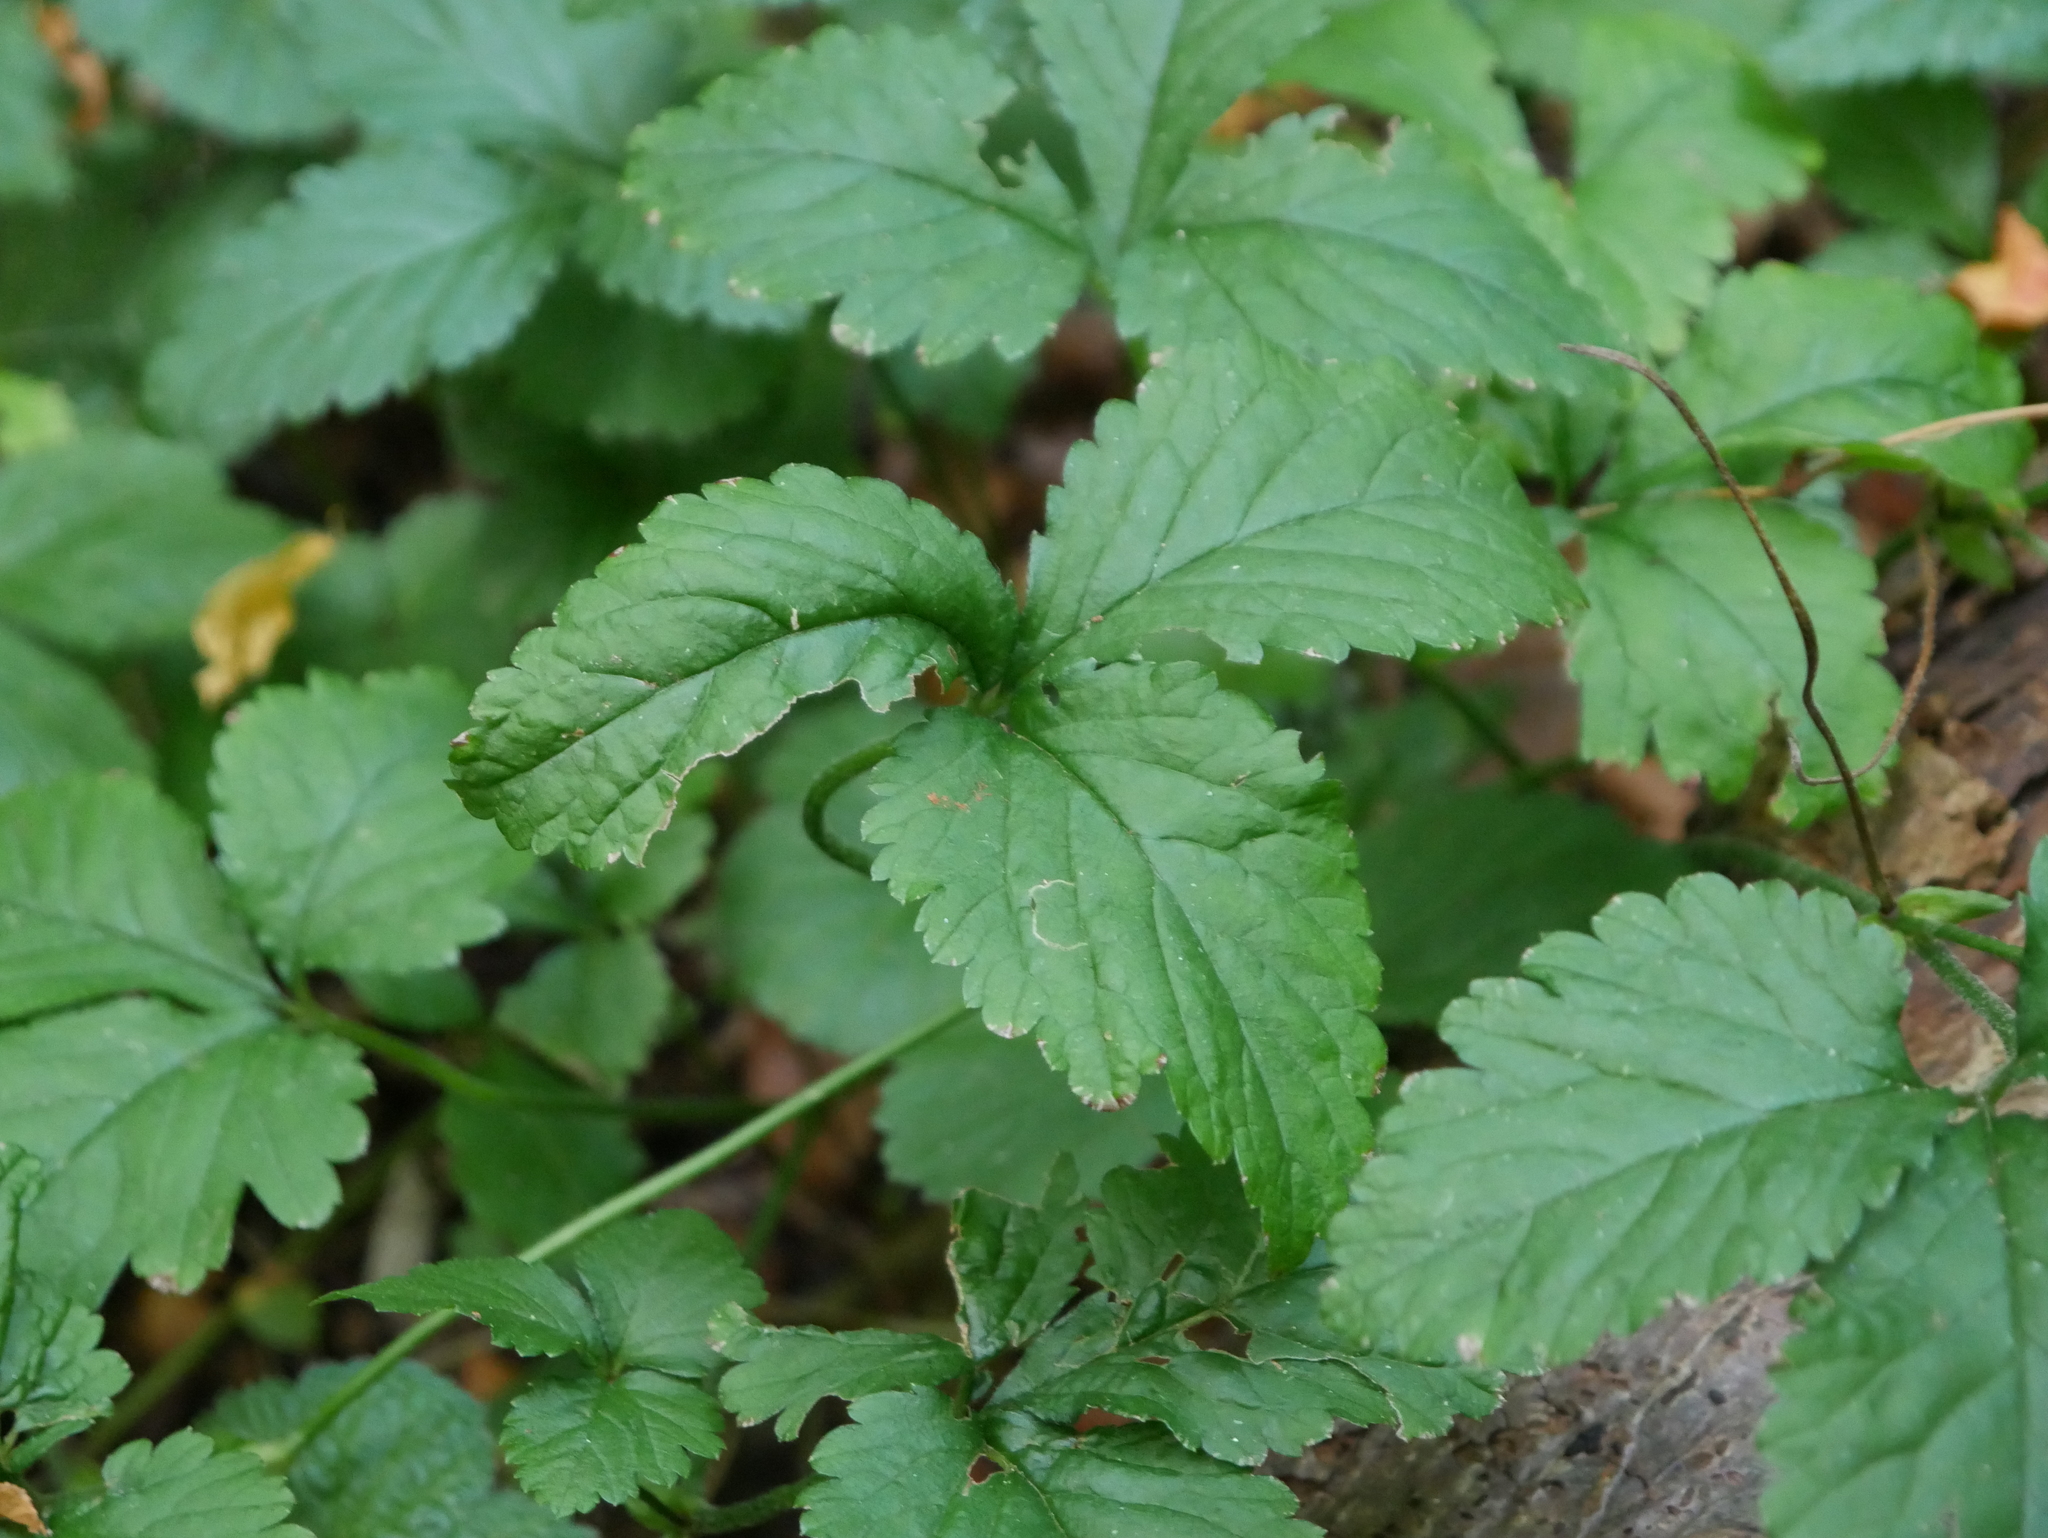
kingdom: Plantae
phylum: Tracheophyta
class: Magnoliopsida
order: Rosales
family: Rosaceae
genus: Potentilla
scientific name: Potentilla indica
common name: Yellow-flowered strawberry
